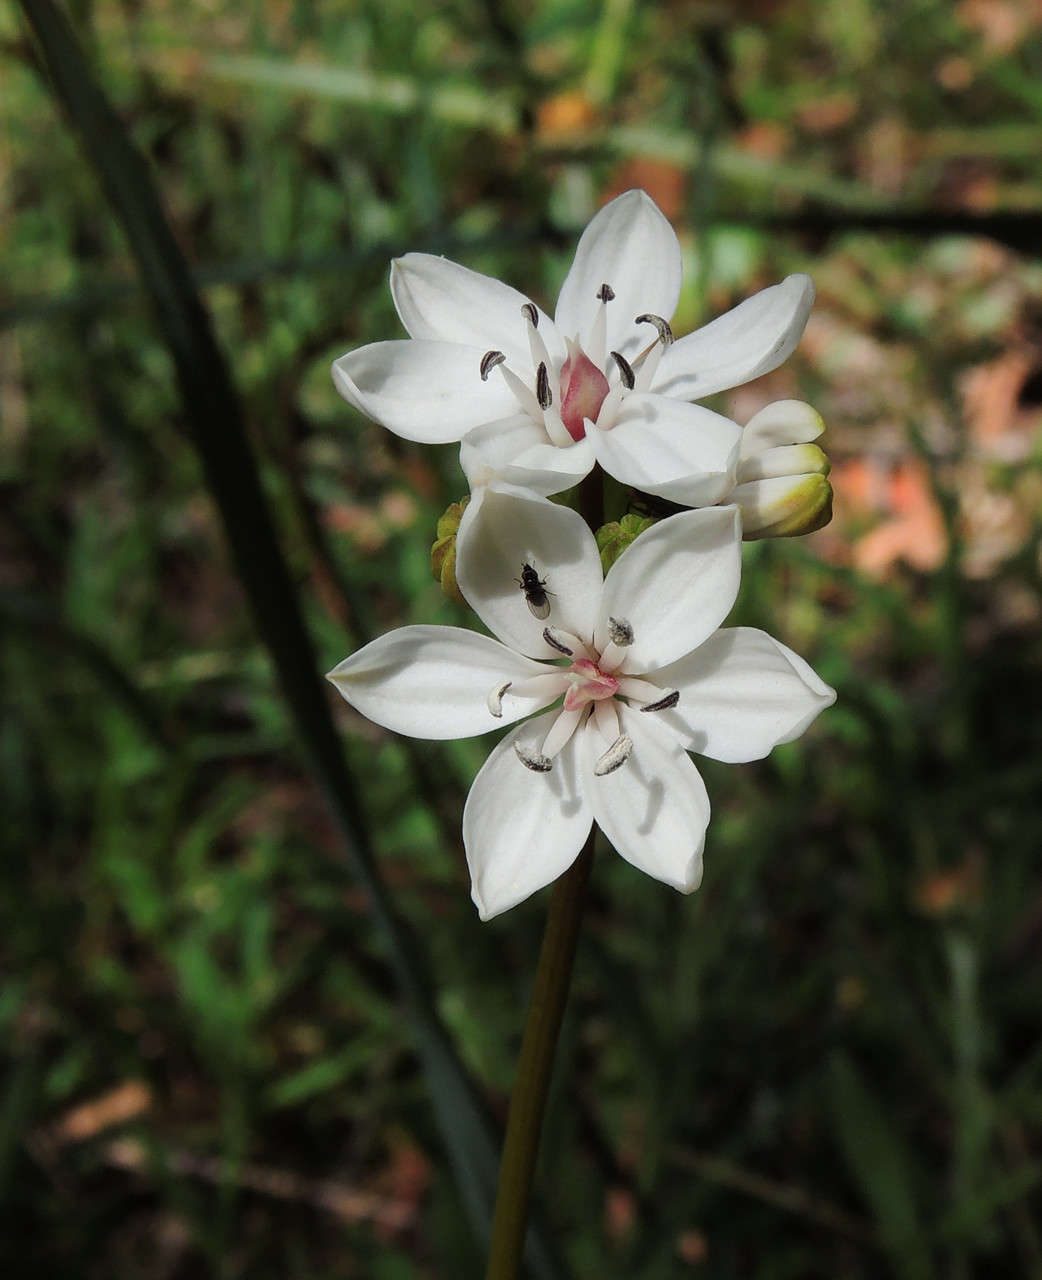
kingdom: Plantae
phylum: Tracheophyta
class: Liliopsida
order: Liliales
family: Colchicaceae
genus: Burchardia
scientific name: Burchardia umbellata
